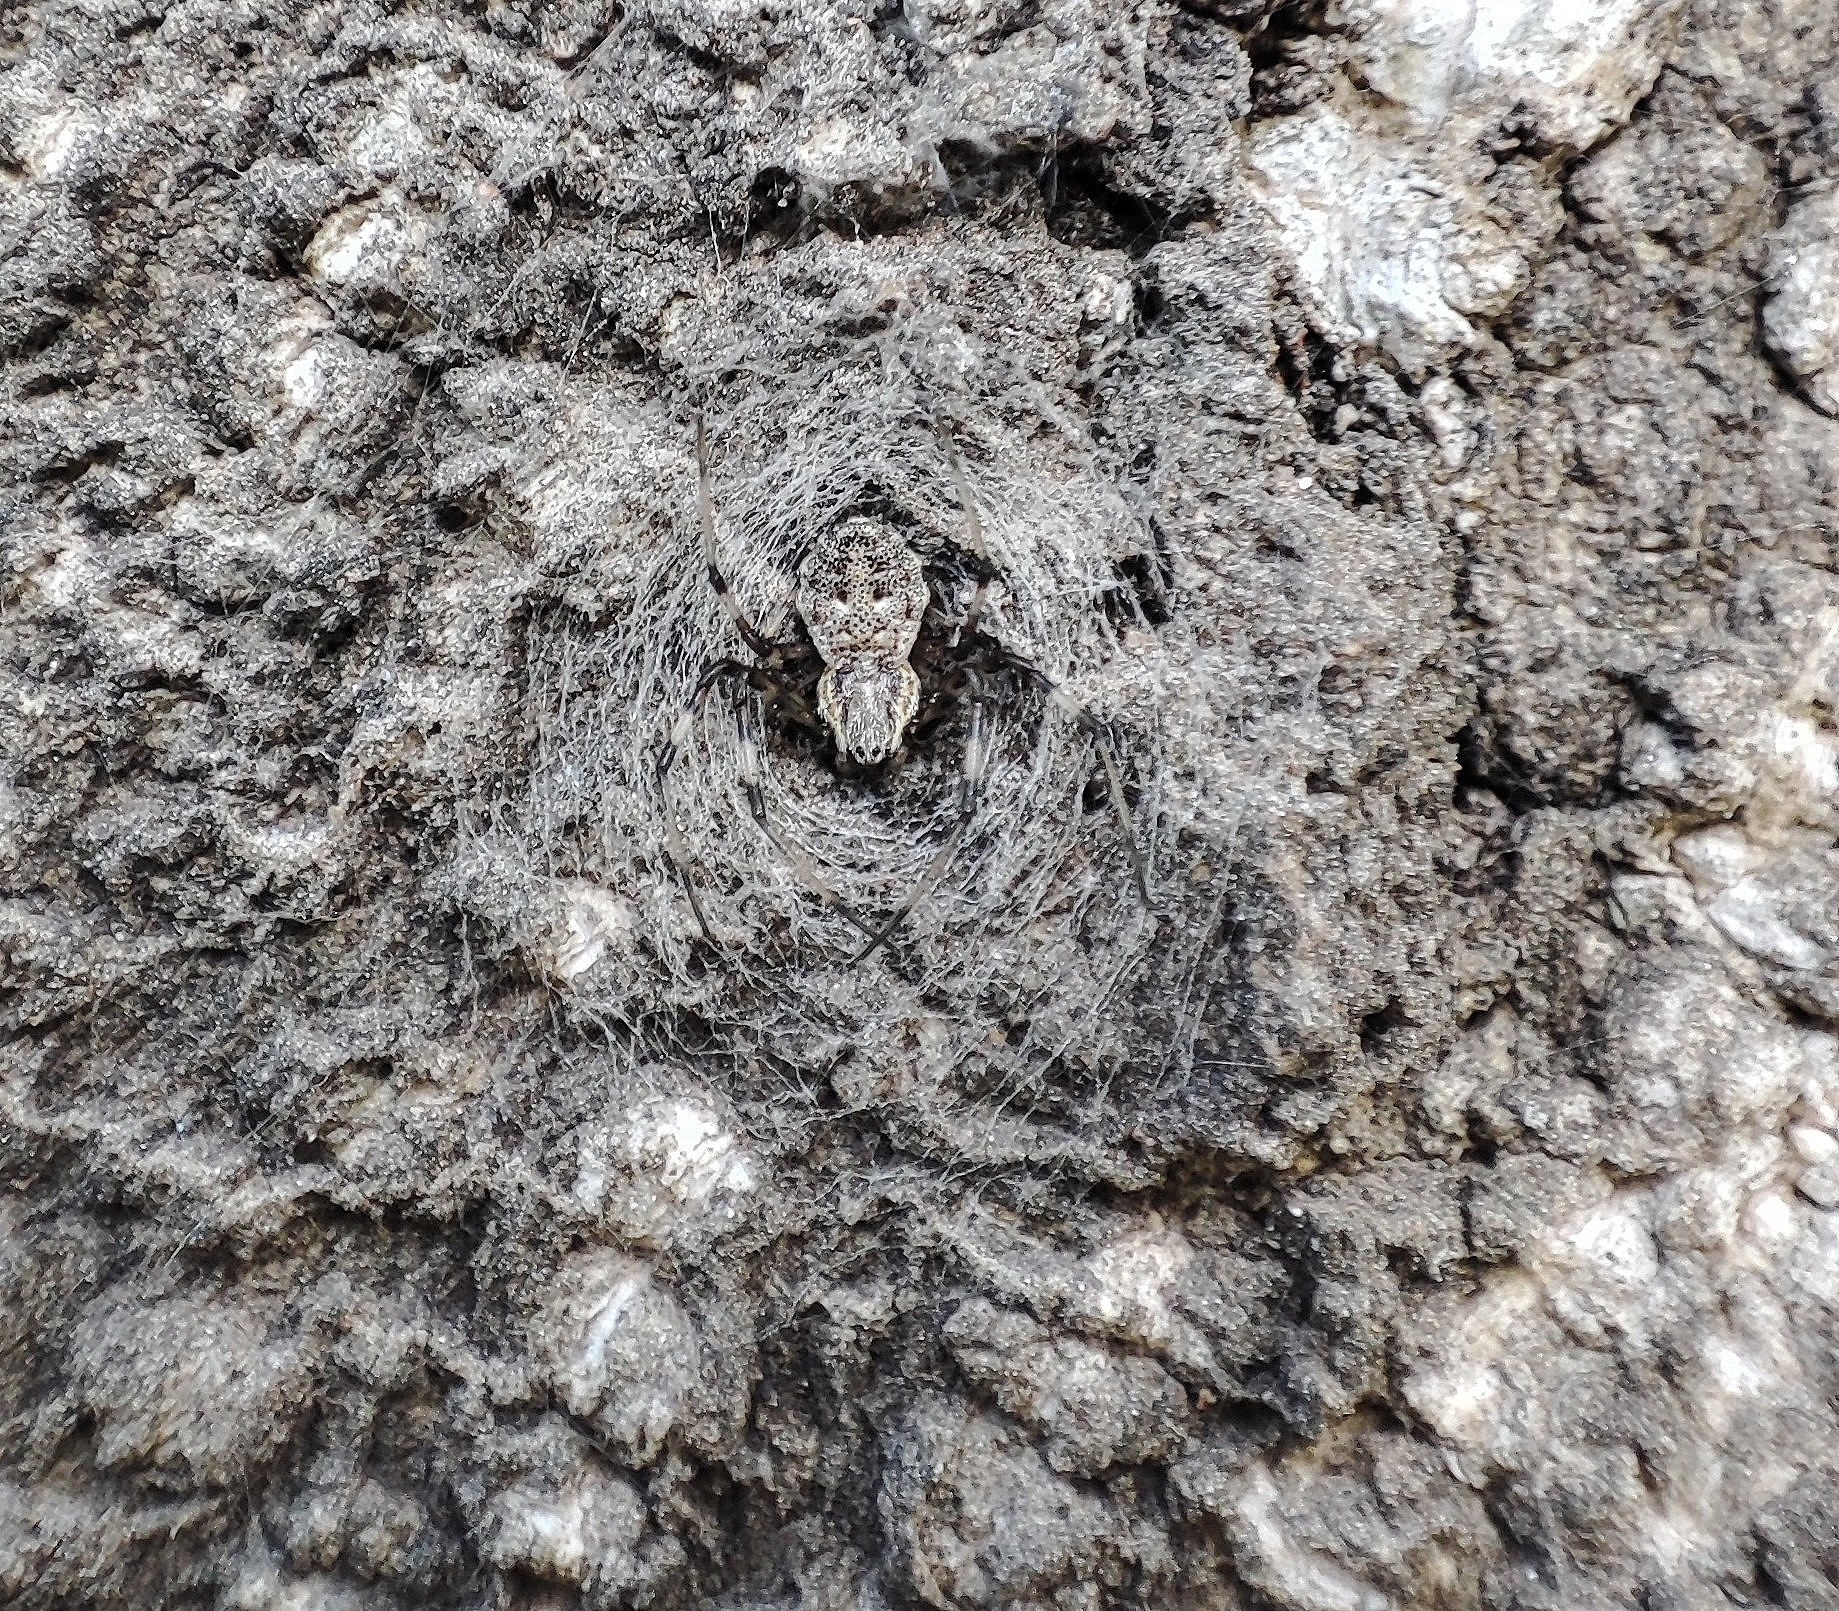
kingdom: Animalia
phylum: Arthropoda
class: Arachnida
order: Araneae
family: Araneidae
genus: Herennia
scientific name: Herennia multipuncta
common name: Spotted coin spider
